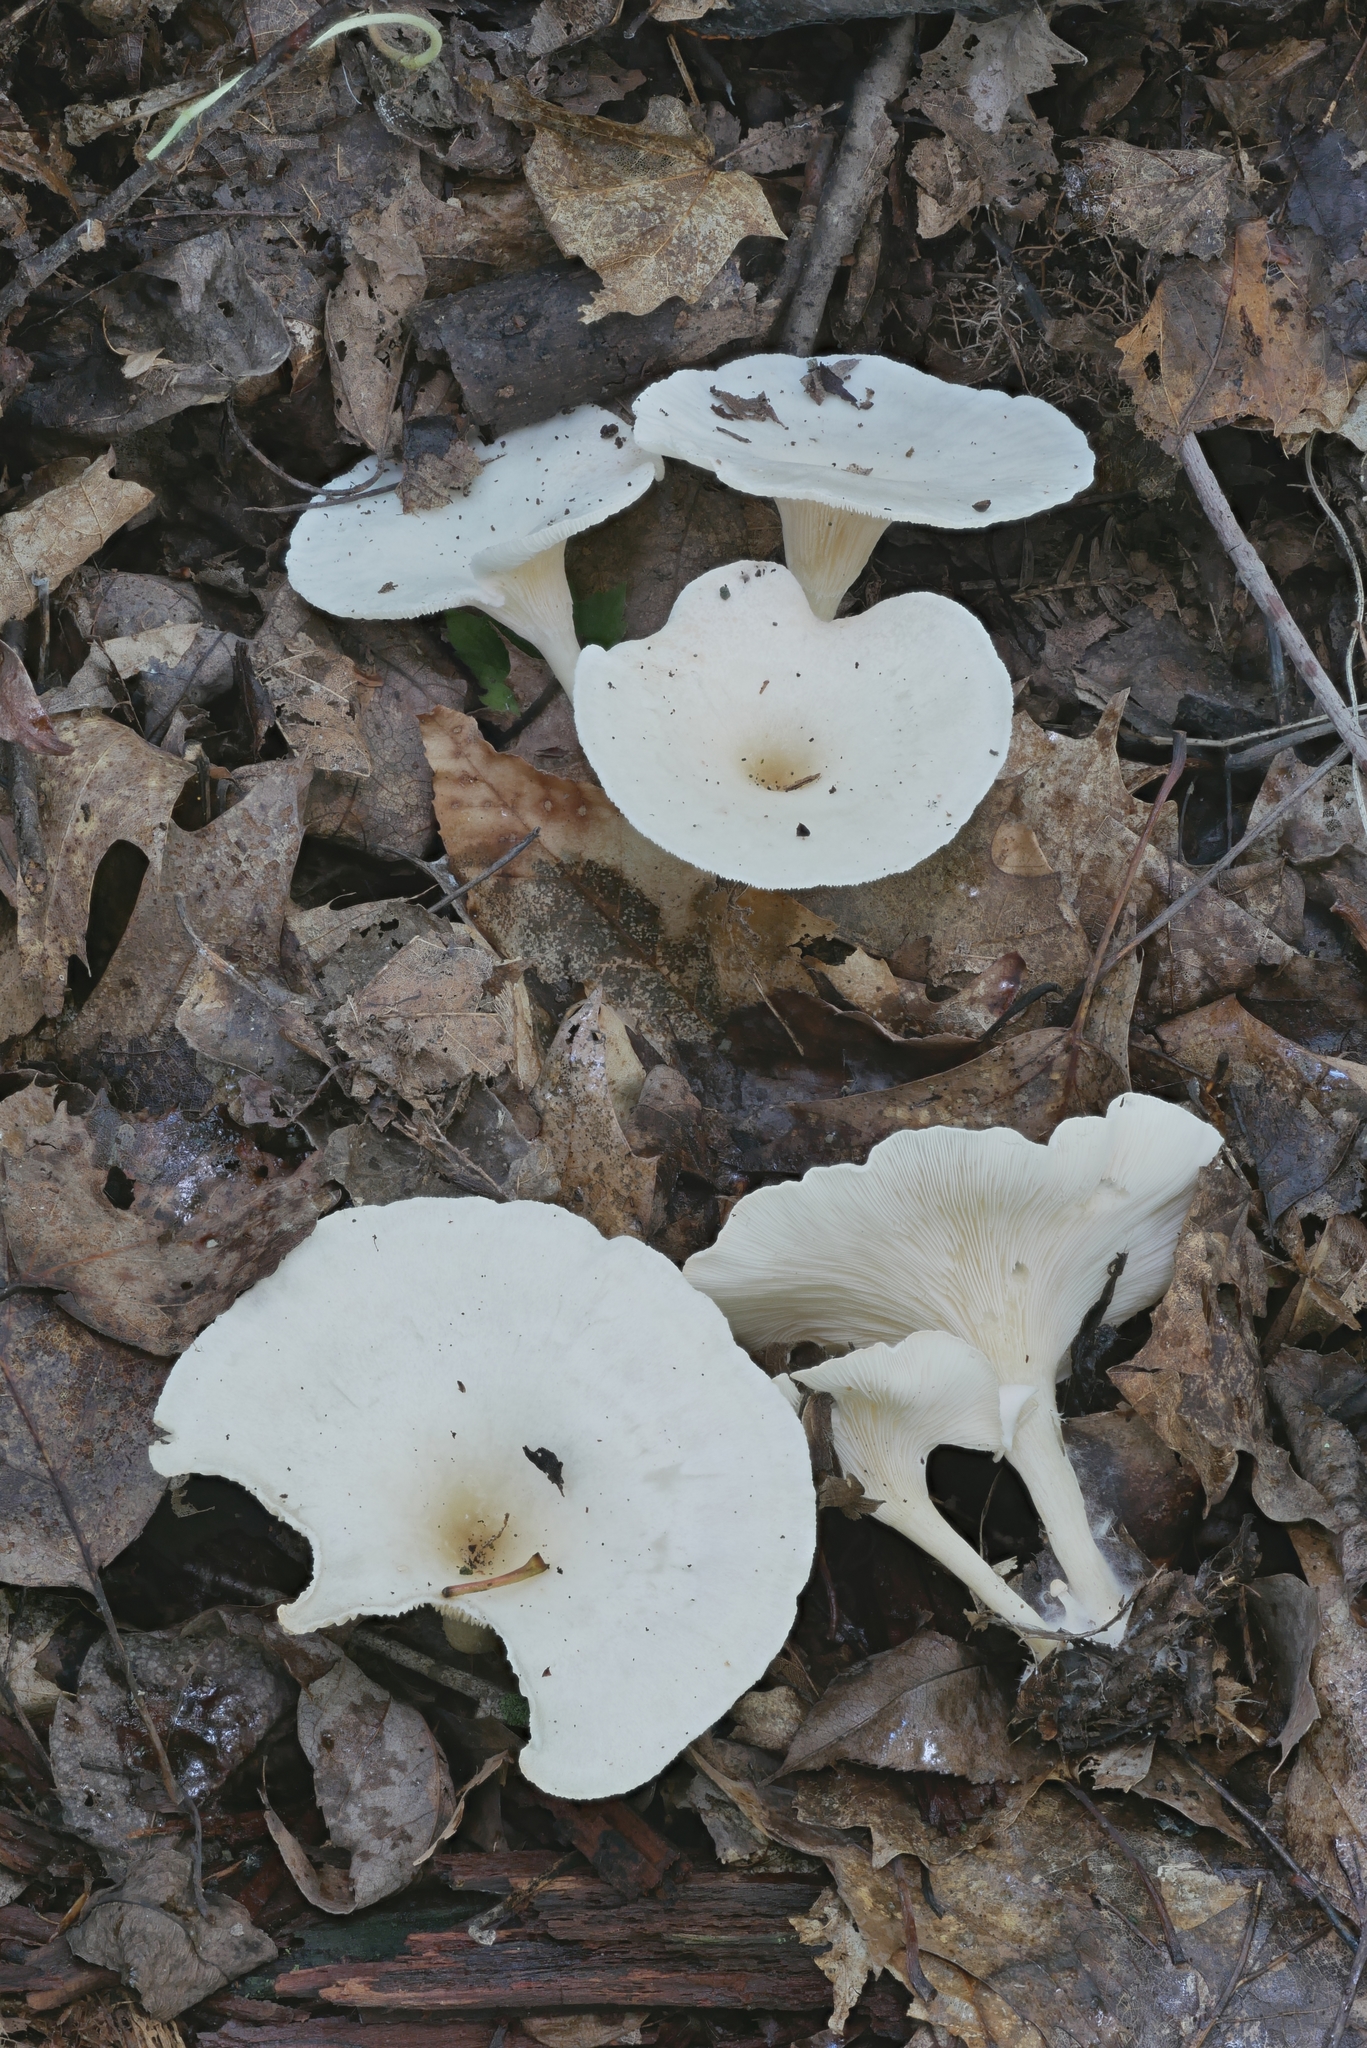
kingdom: Fungi
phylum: Basidiomycota
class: Agaricomycetes
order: Agaricales
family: Tricholomataceae
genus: Infundibulicybe
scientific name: Infundibulicybe gibba
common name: Common funnel
